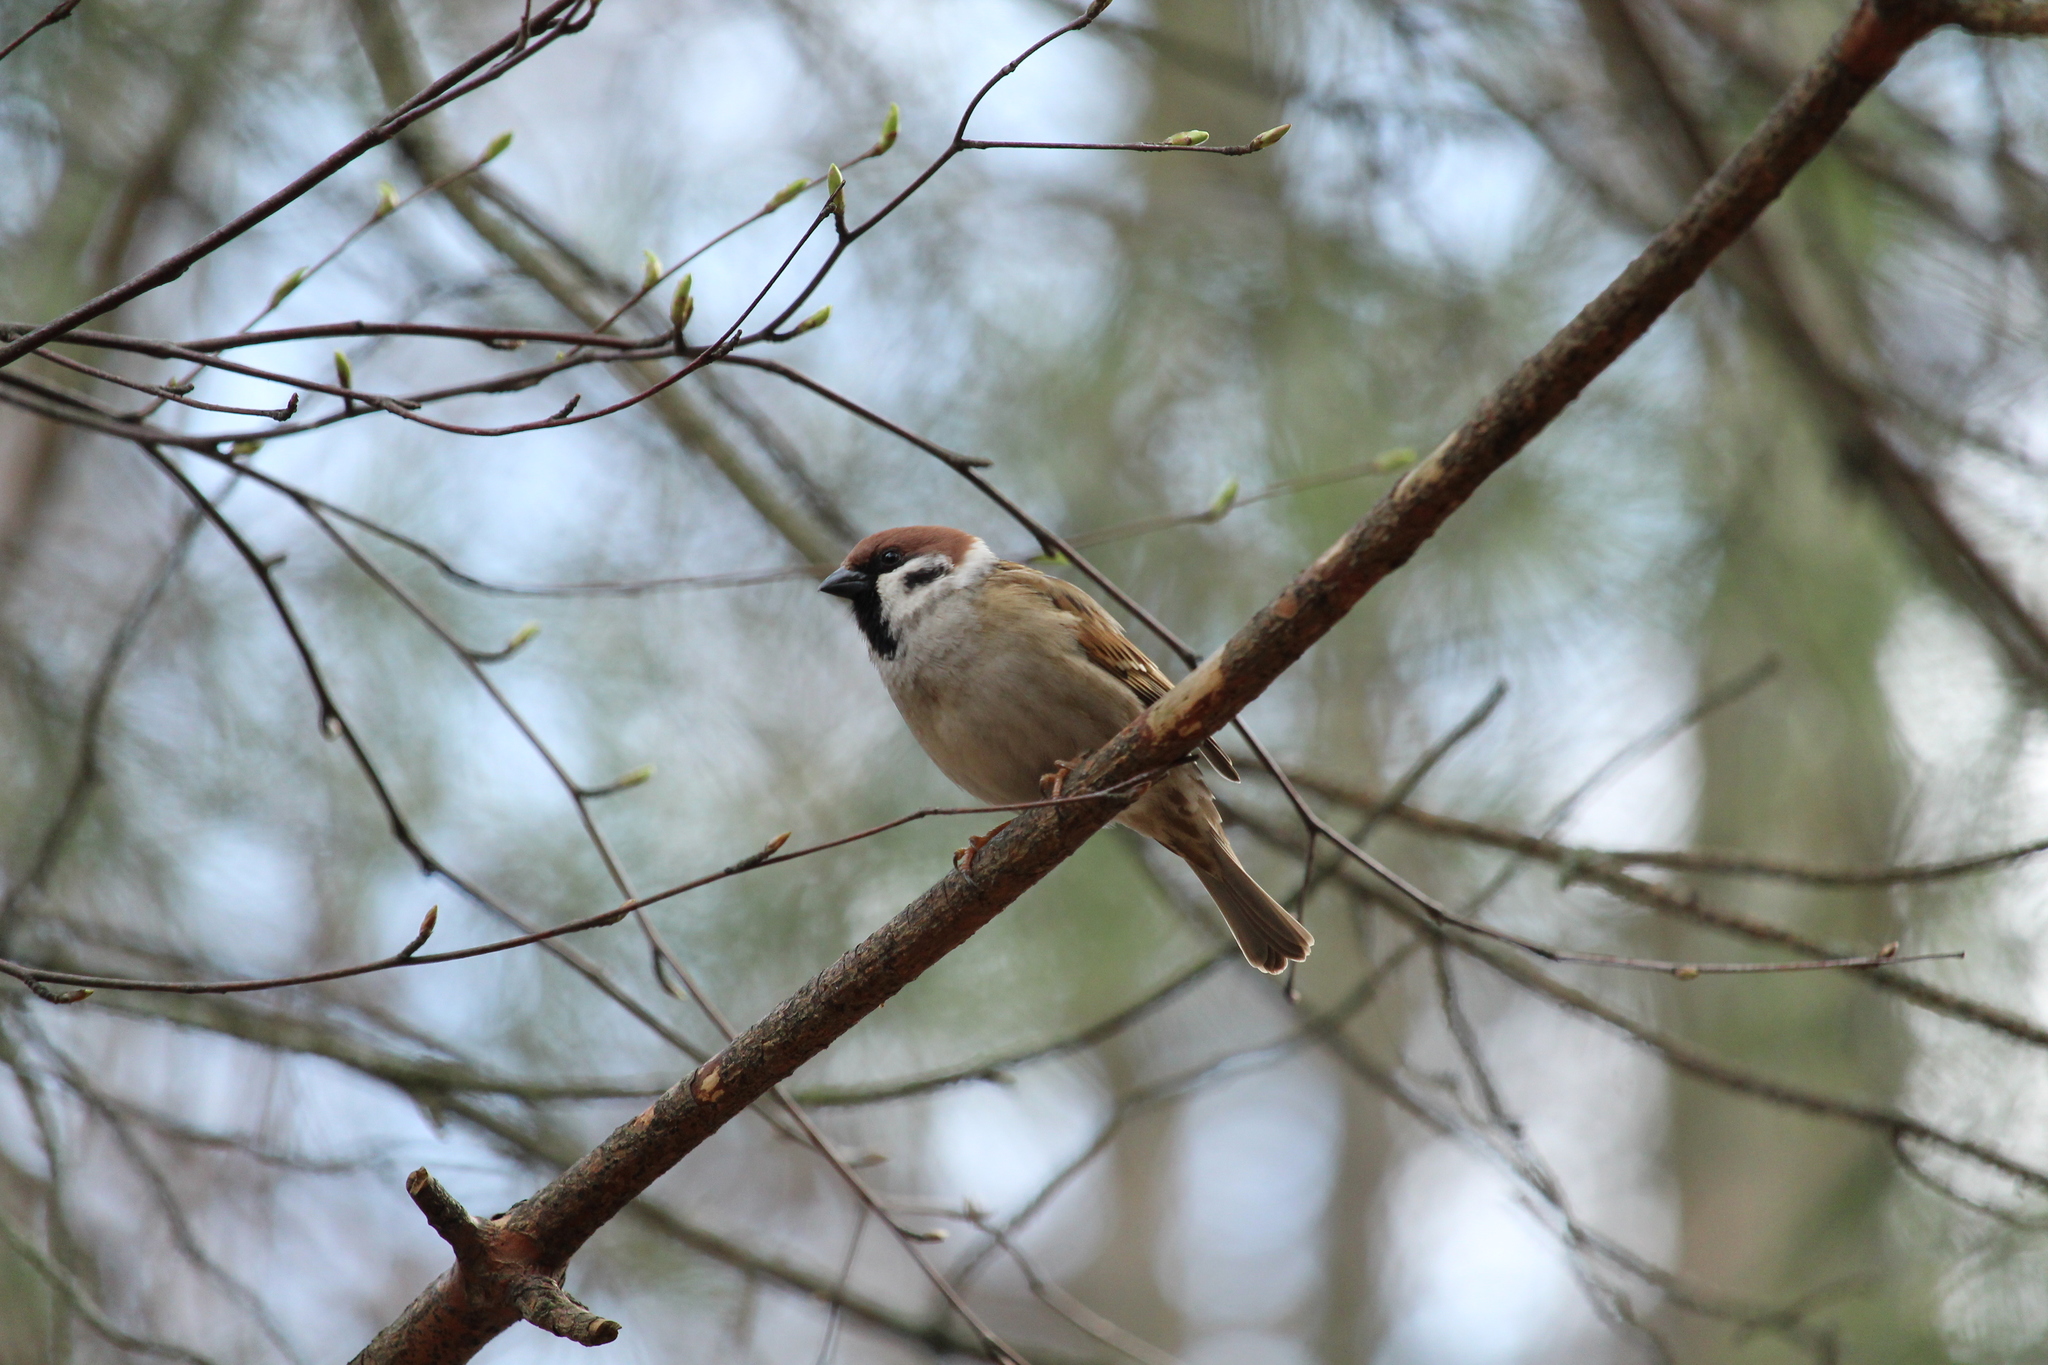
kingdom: Animalia
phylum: Chordata
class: Aves
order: Passeriformes
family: Passeridae
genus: Passer
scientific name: Passer montanus
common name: Eurasian tree sparrow
